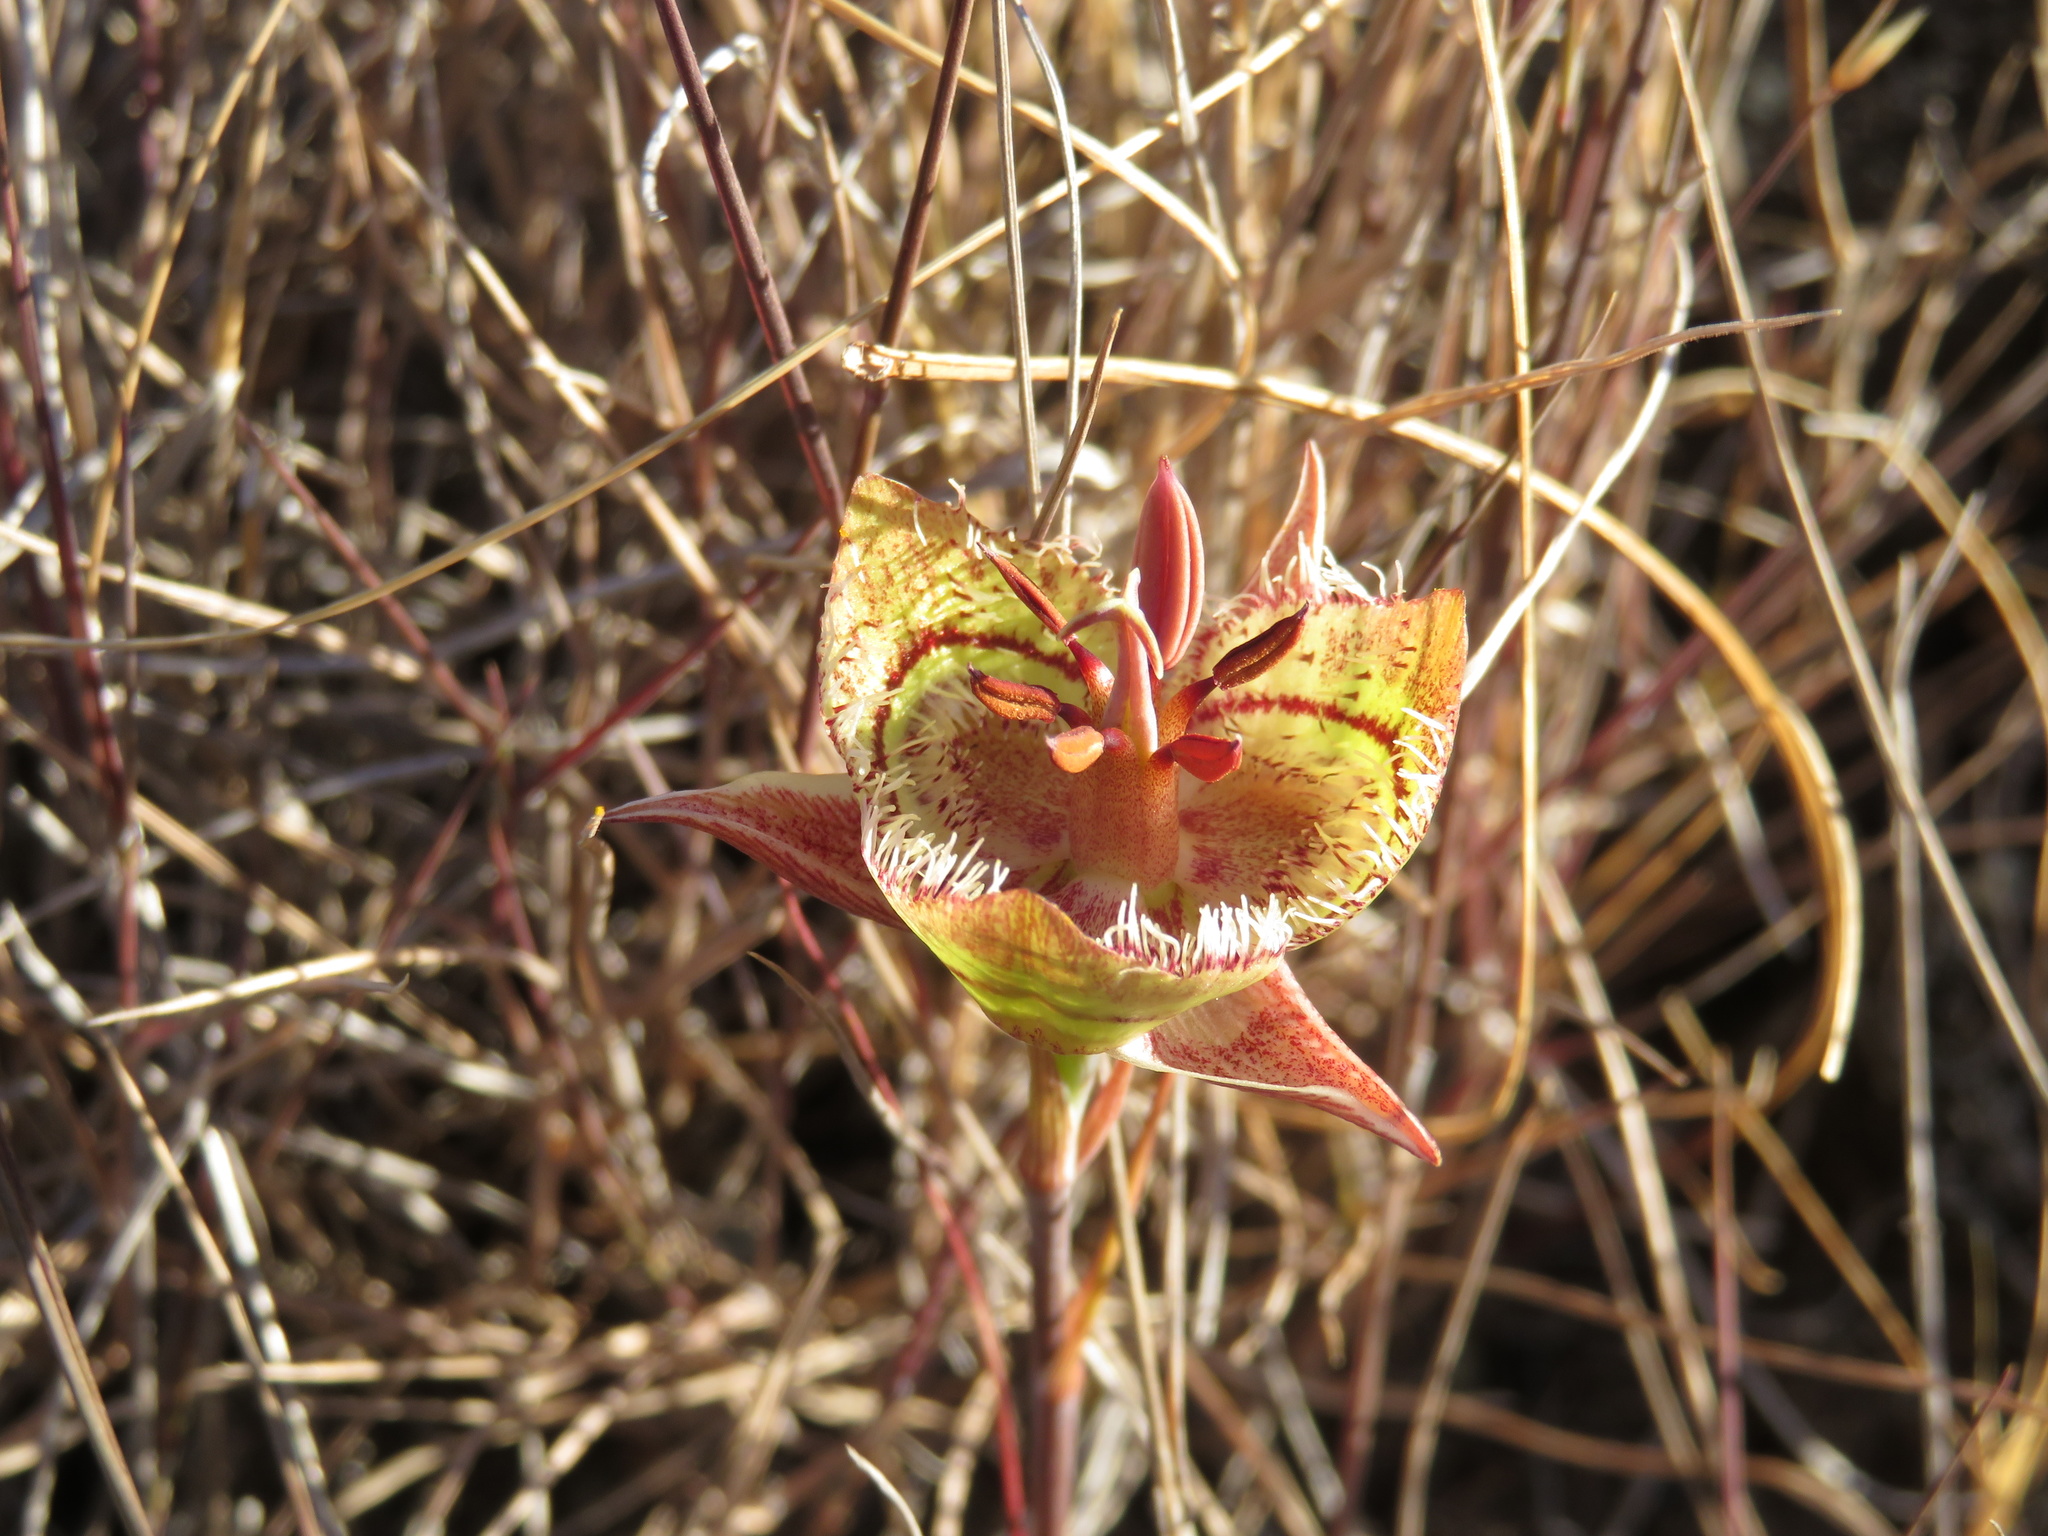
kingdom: Plantae
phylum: Tracheophyta
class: Liliopsida
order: Liliales
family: Liliaceae
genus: Calochortus
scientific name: Calochortus tiburonensis
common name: Tiburon mariposa-lily
